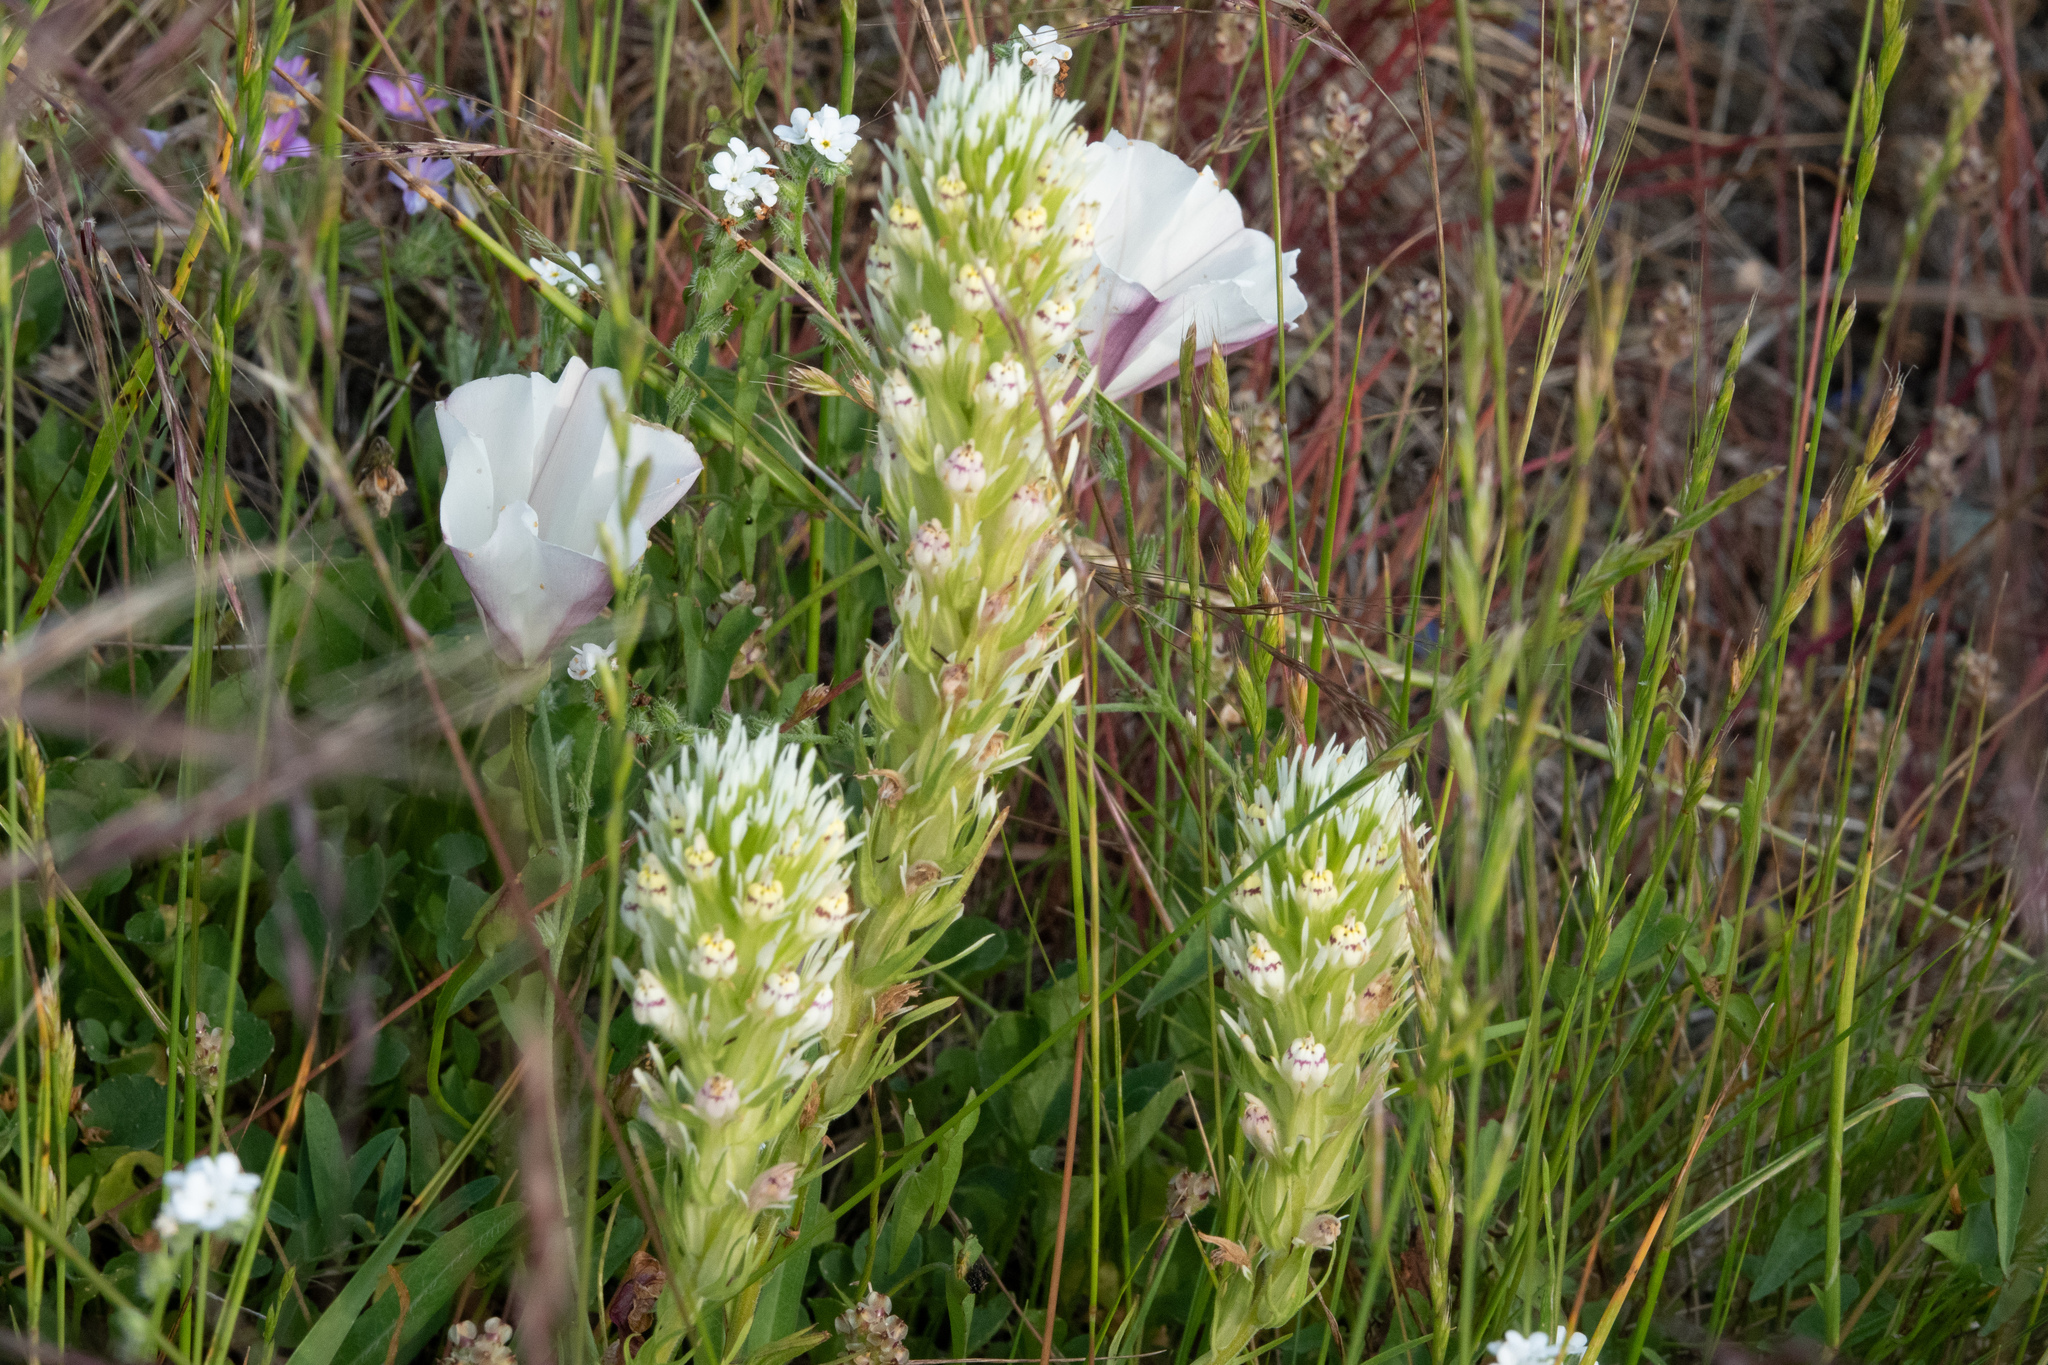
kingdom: Plantae
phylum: Tracheophyta
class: Magnoliopsida
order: Lamiales
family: Orobanchaceae
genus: Castilleja
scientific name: Castilleja densiflora
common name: Dense-flower indian paintbrush
